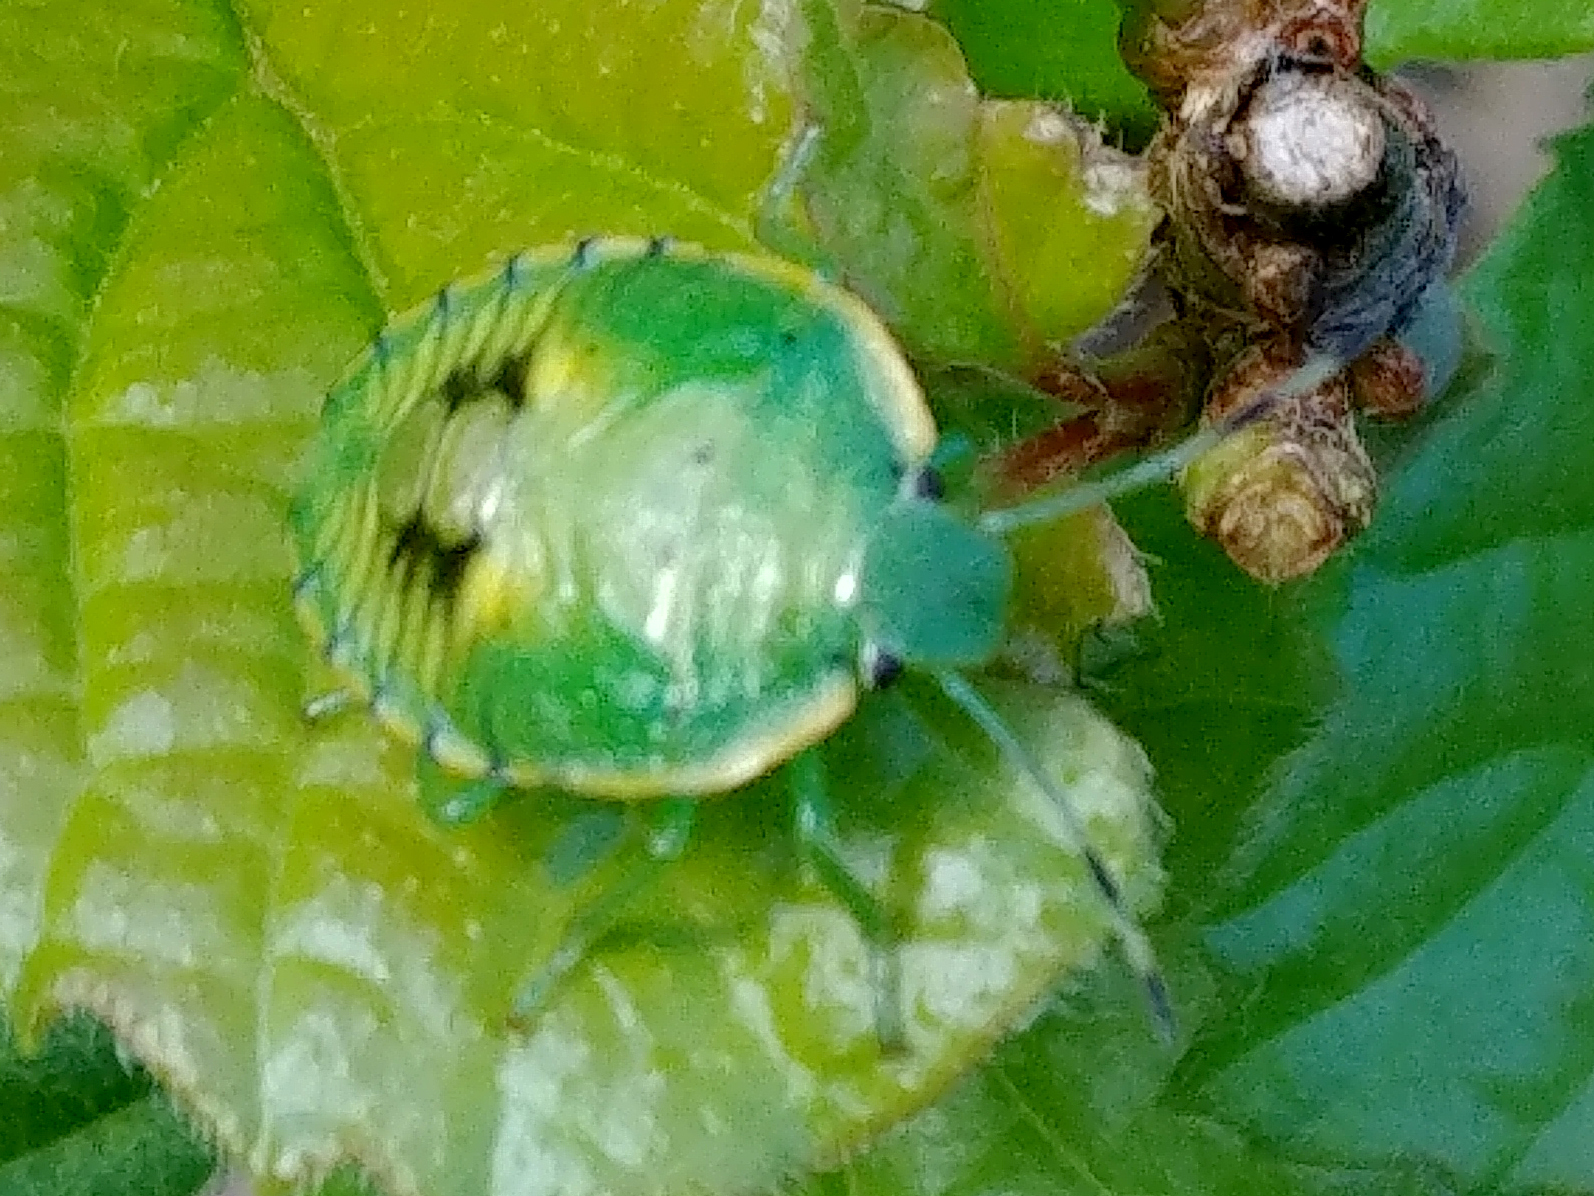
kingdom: Animalia
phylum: Arthropoda
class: Insecta
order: Hemiptera
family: Pentatomidae
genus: Chinavia
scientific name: Chinavia hilaris
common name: Green stink bug
